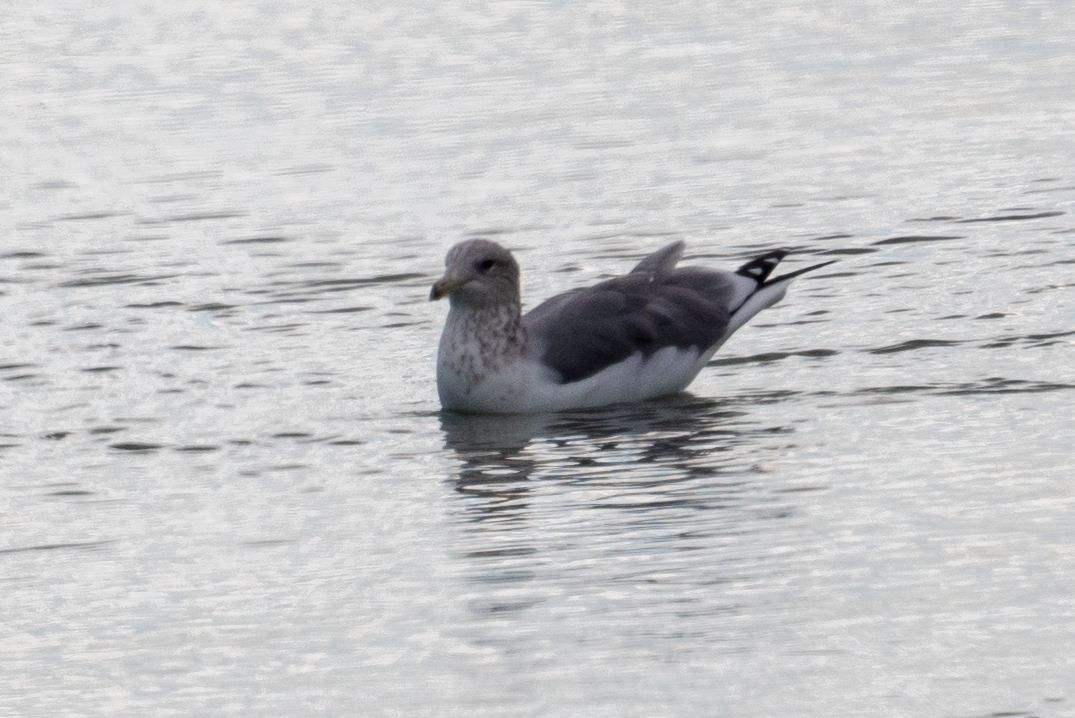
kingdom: Animalia
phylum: Chordata
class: Aves
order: Charadriiformes
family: Laridae
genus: Larus
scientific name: Larus californicus
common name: California gull
